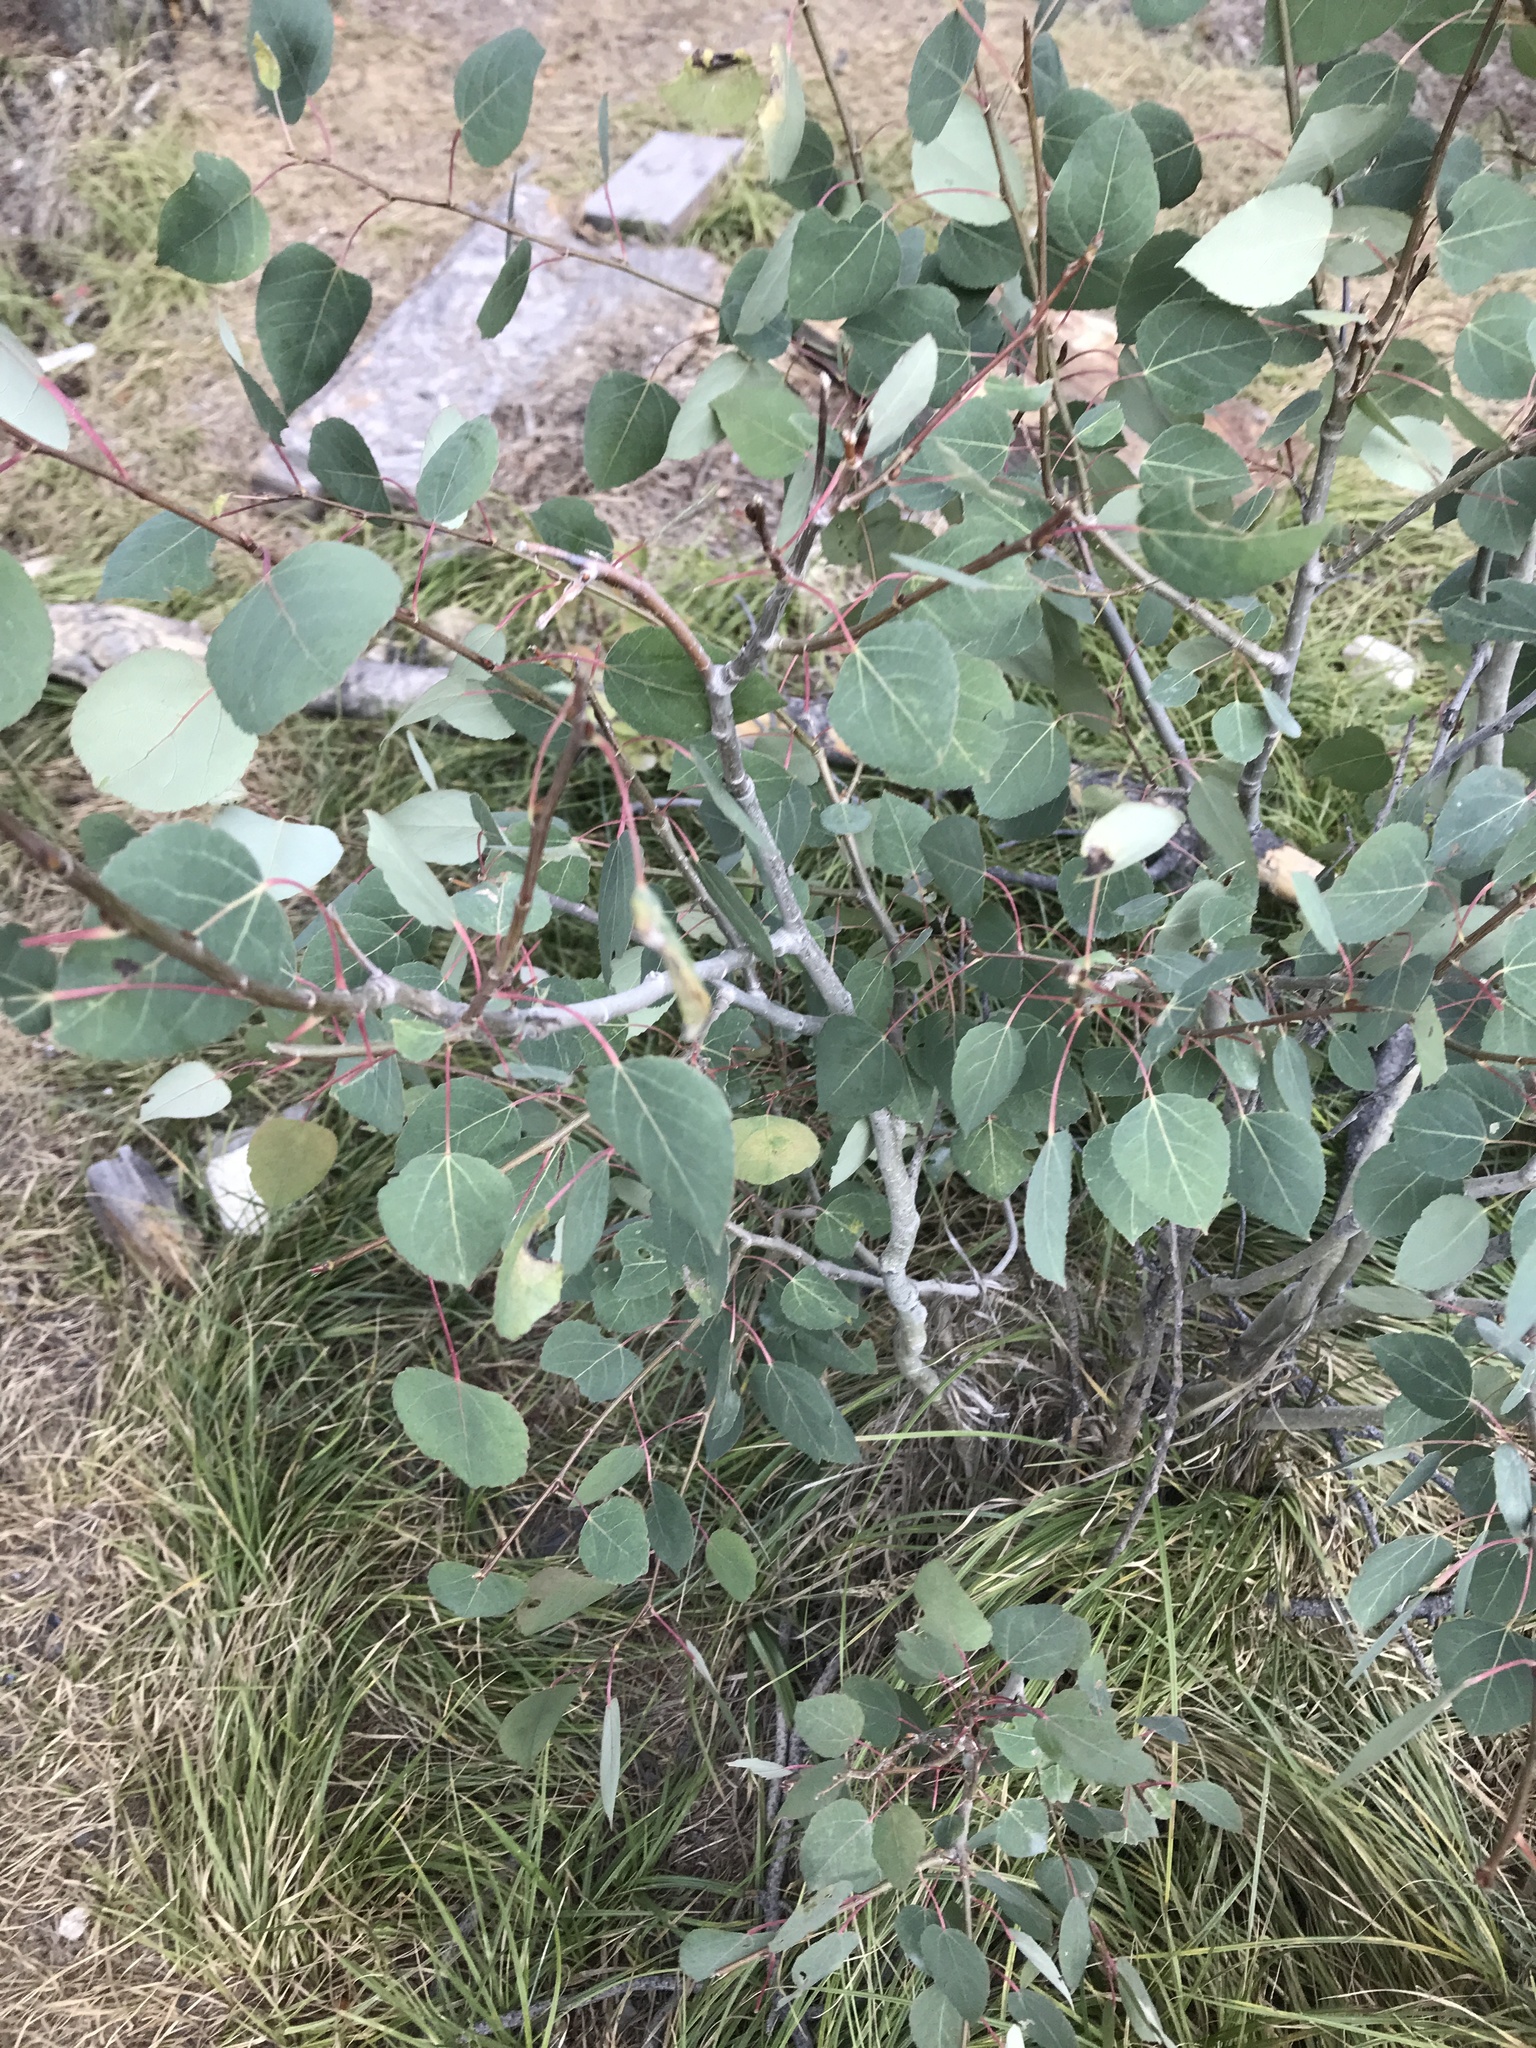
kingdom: Plantae
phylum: Tracheophyta
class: Magnoliopsida
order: Malpighiales
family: Salicaceae
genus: Populus
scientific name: Populus tremuloides
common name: Quaking aspen
